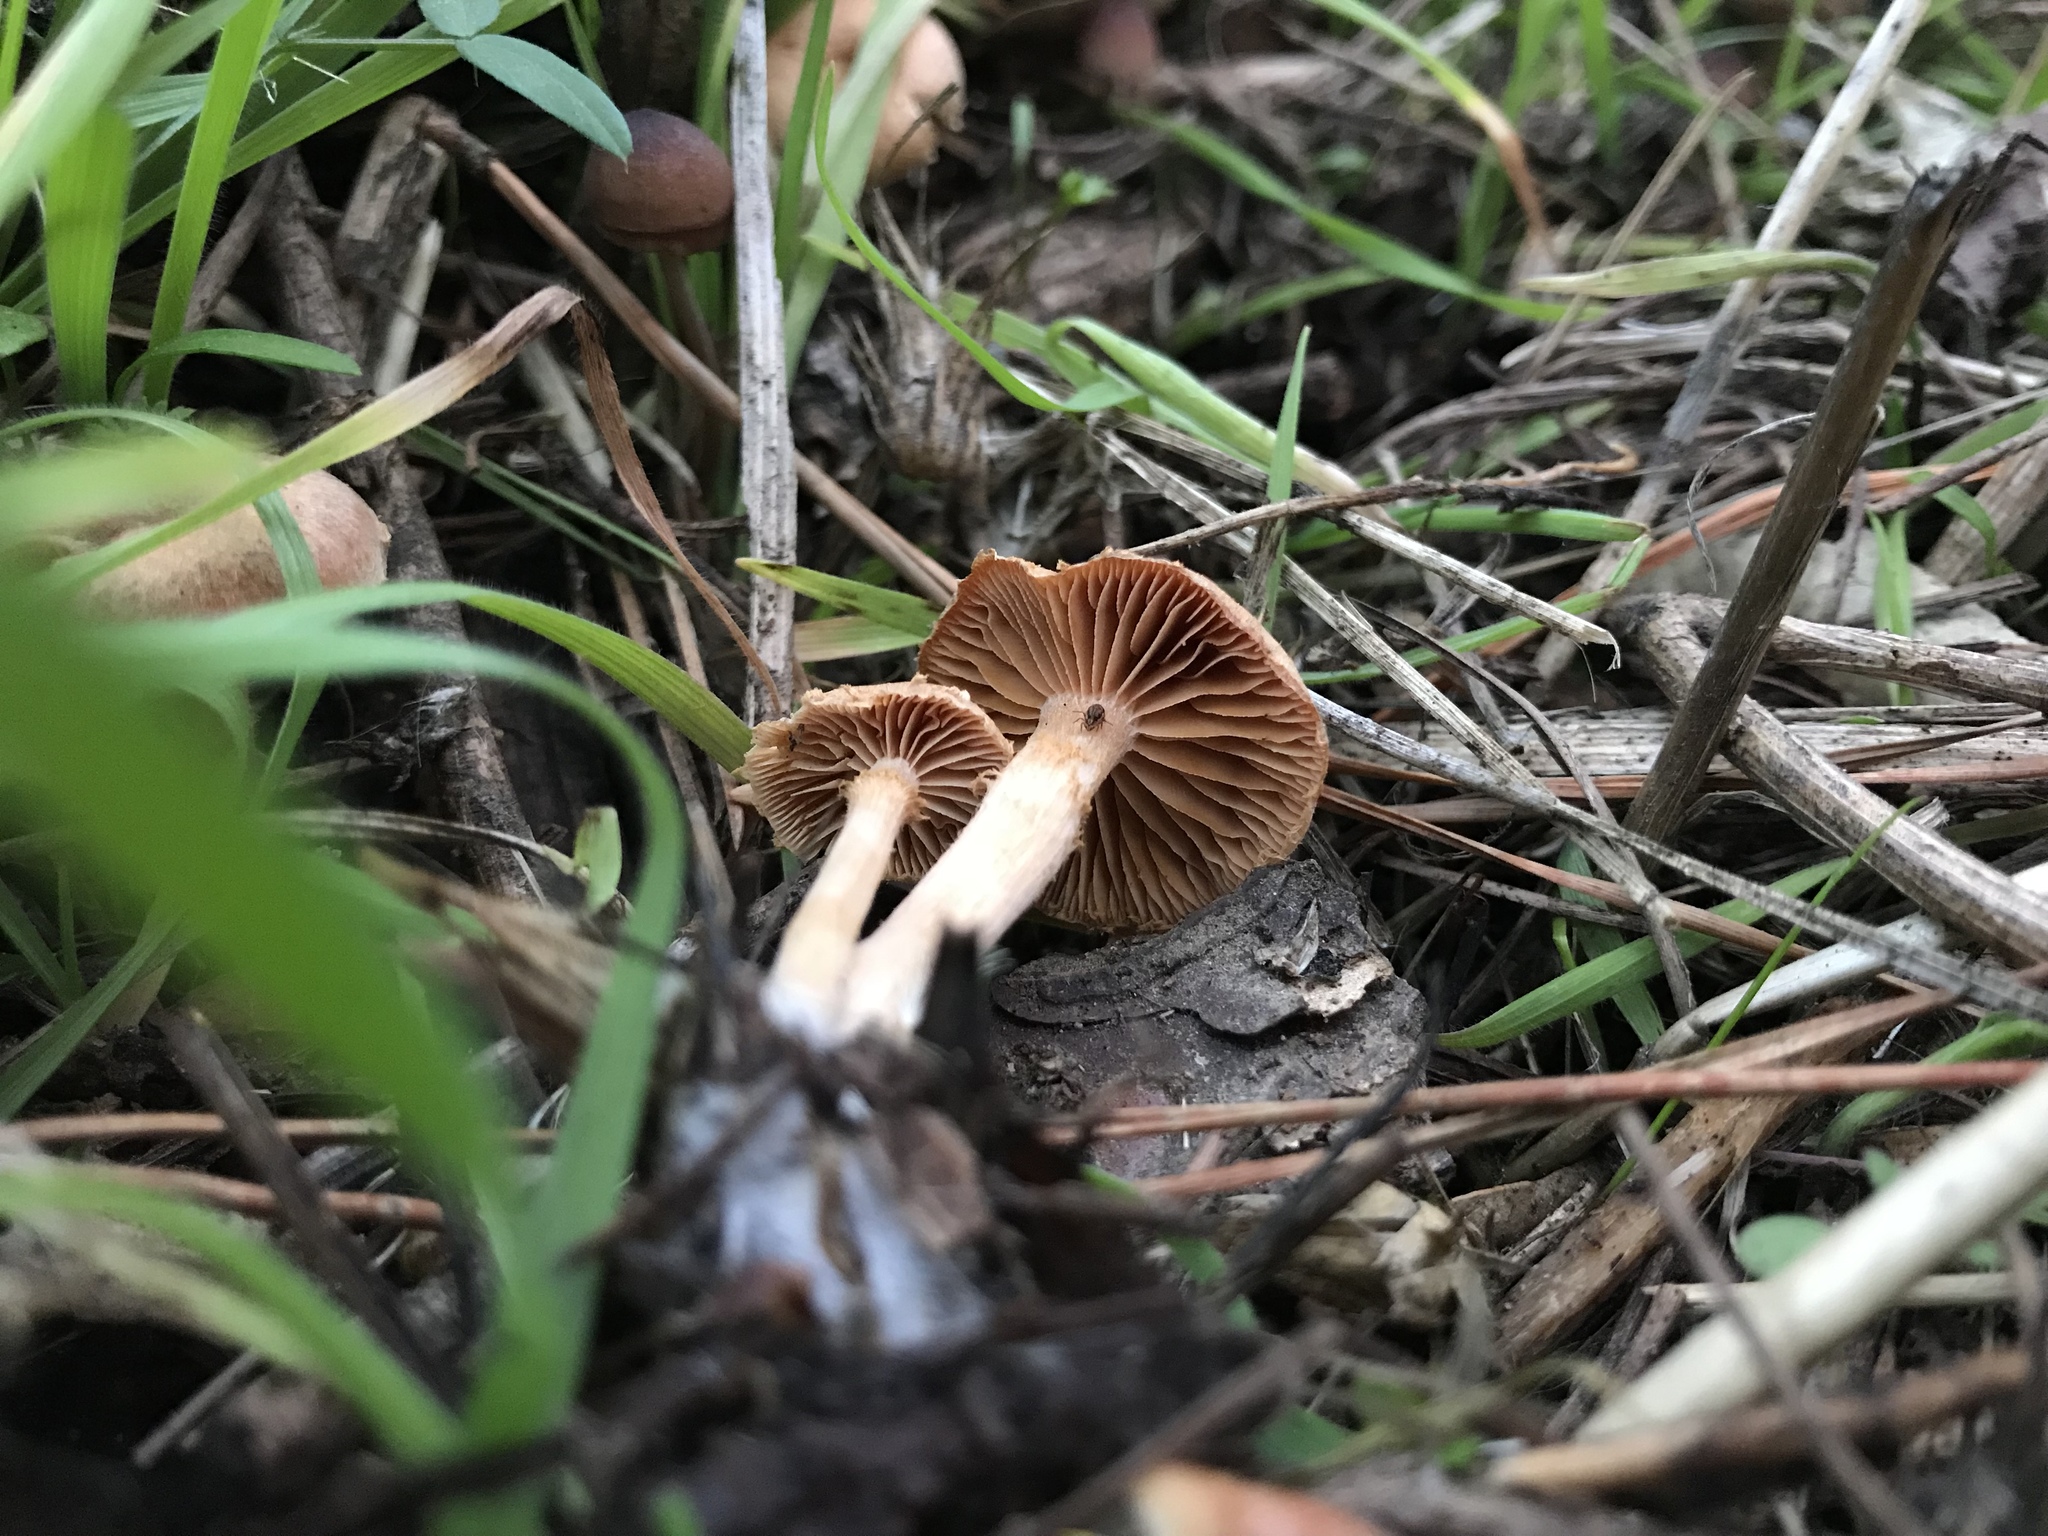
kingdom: Fungi
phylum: Basidiomycota
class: Agaricomycetes
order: Agaricales
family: Tubariaceae
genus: Tubaria
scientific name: Tubaria furfuracea
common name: Scurfy twiglet
